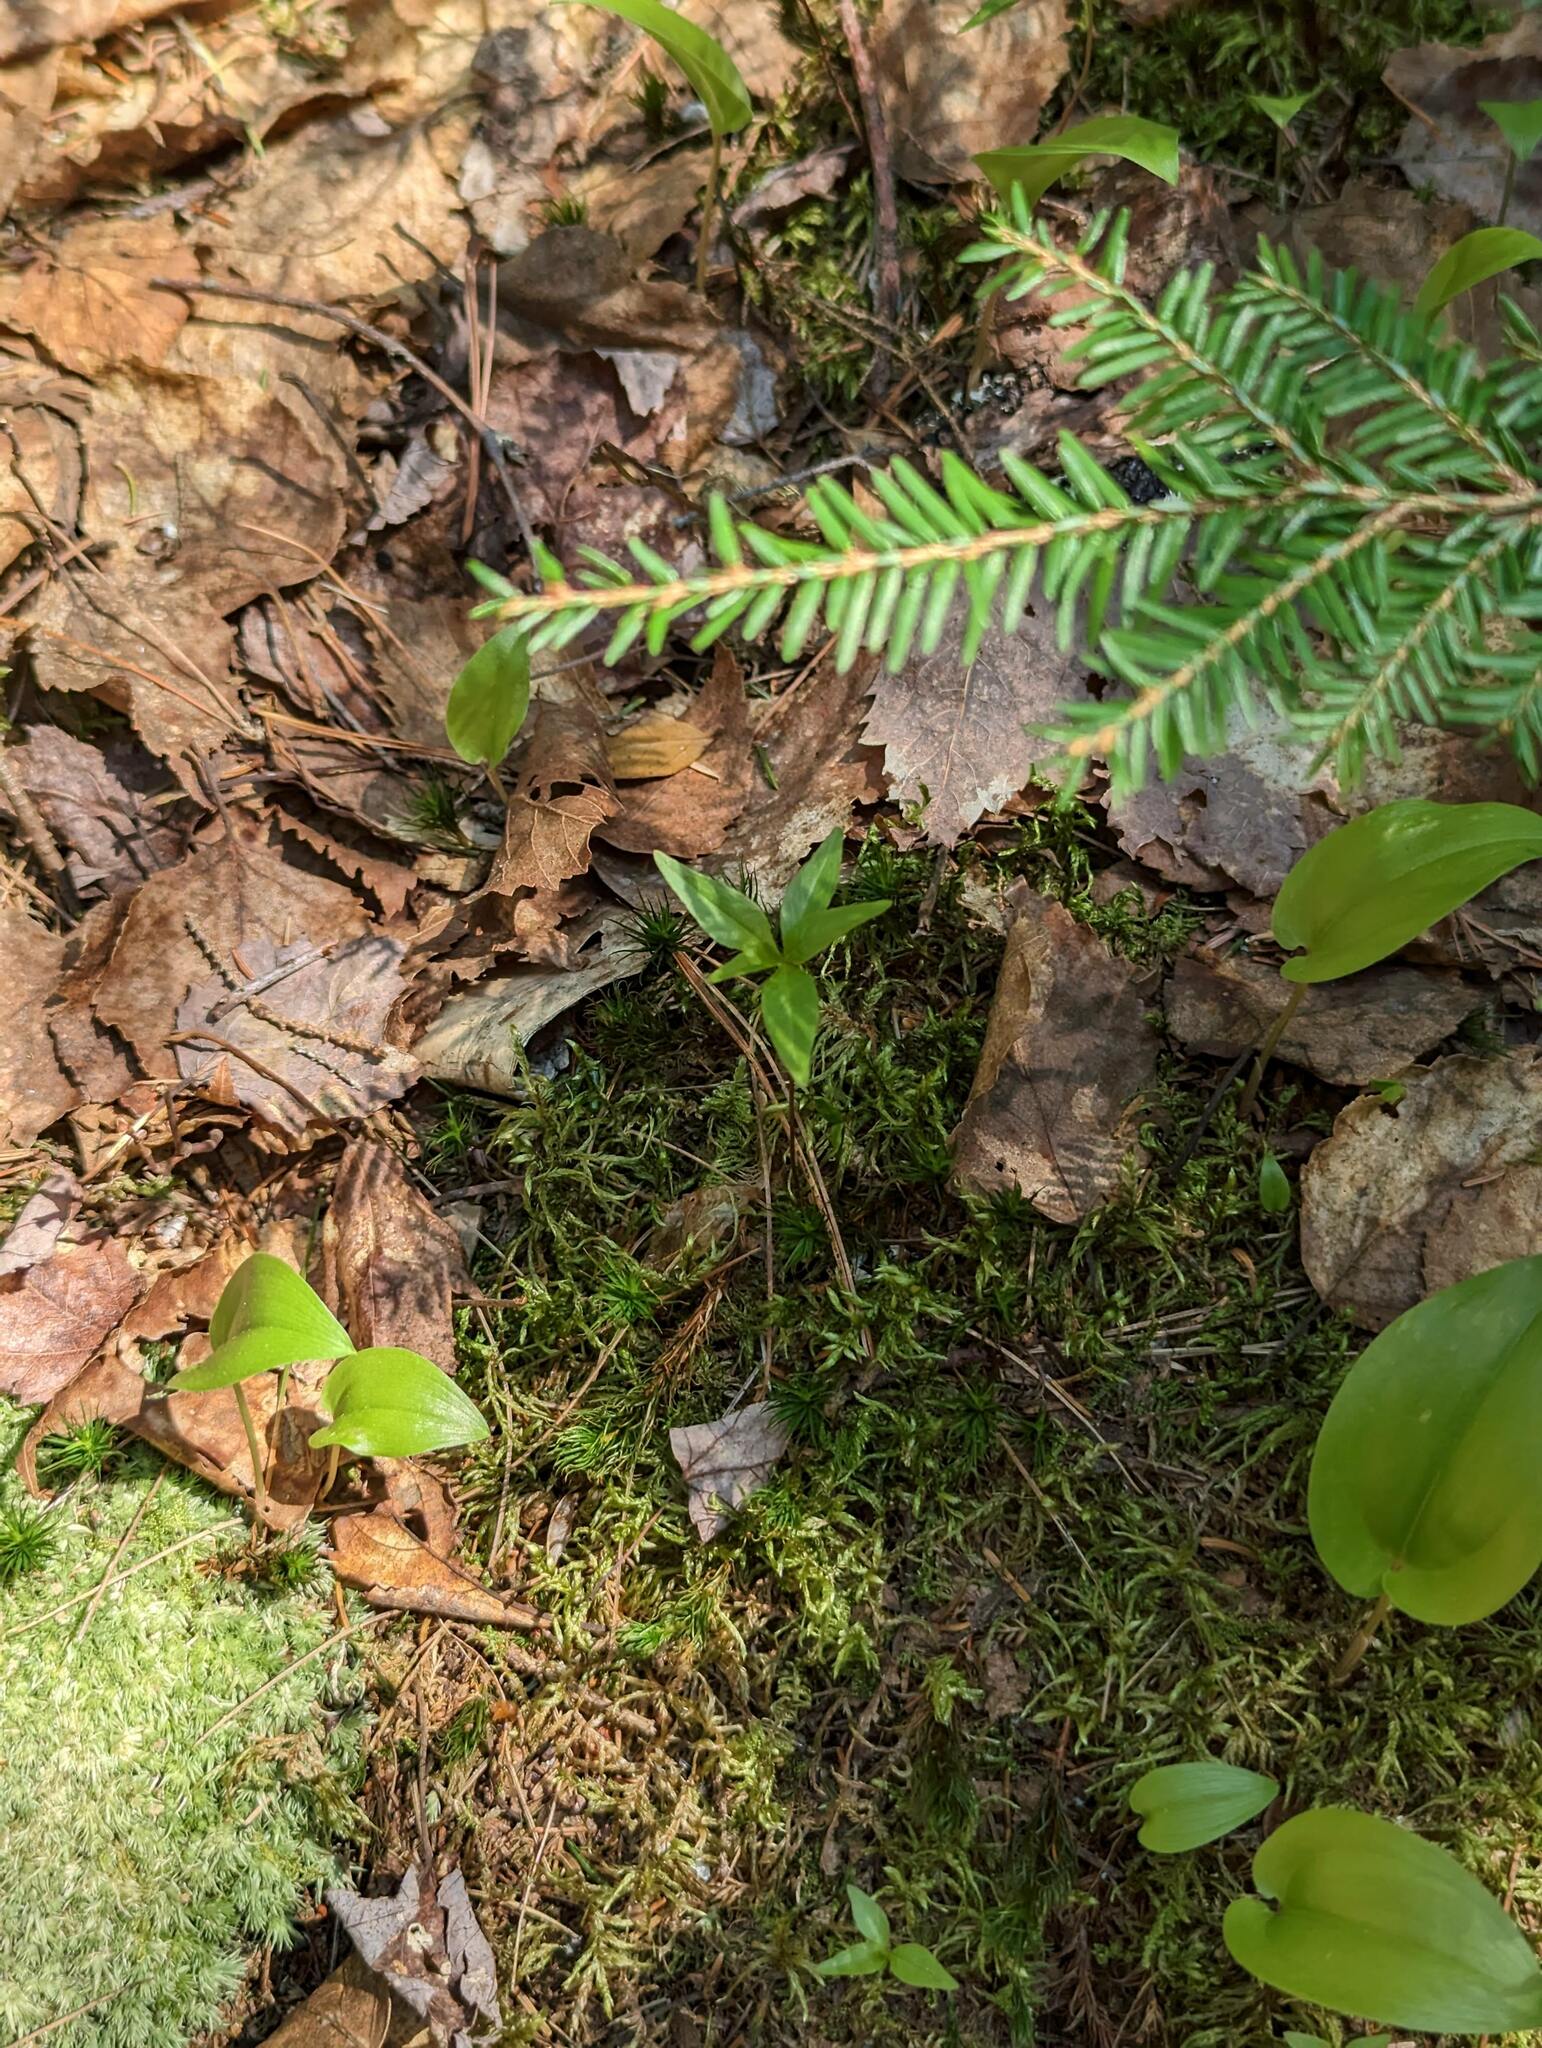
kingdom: Plantae
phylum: Tracheophyta
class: Magnoliopsida
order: Ericales
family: Primulaceae
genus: Lysimachia
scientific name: Lysimachia borealis
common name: American starflower
